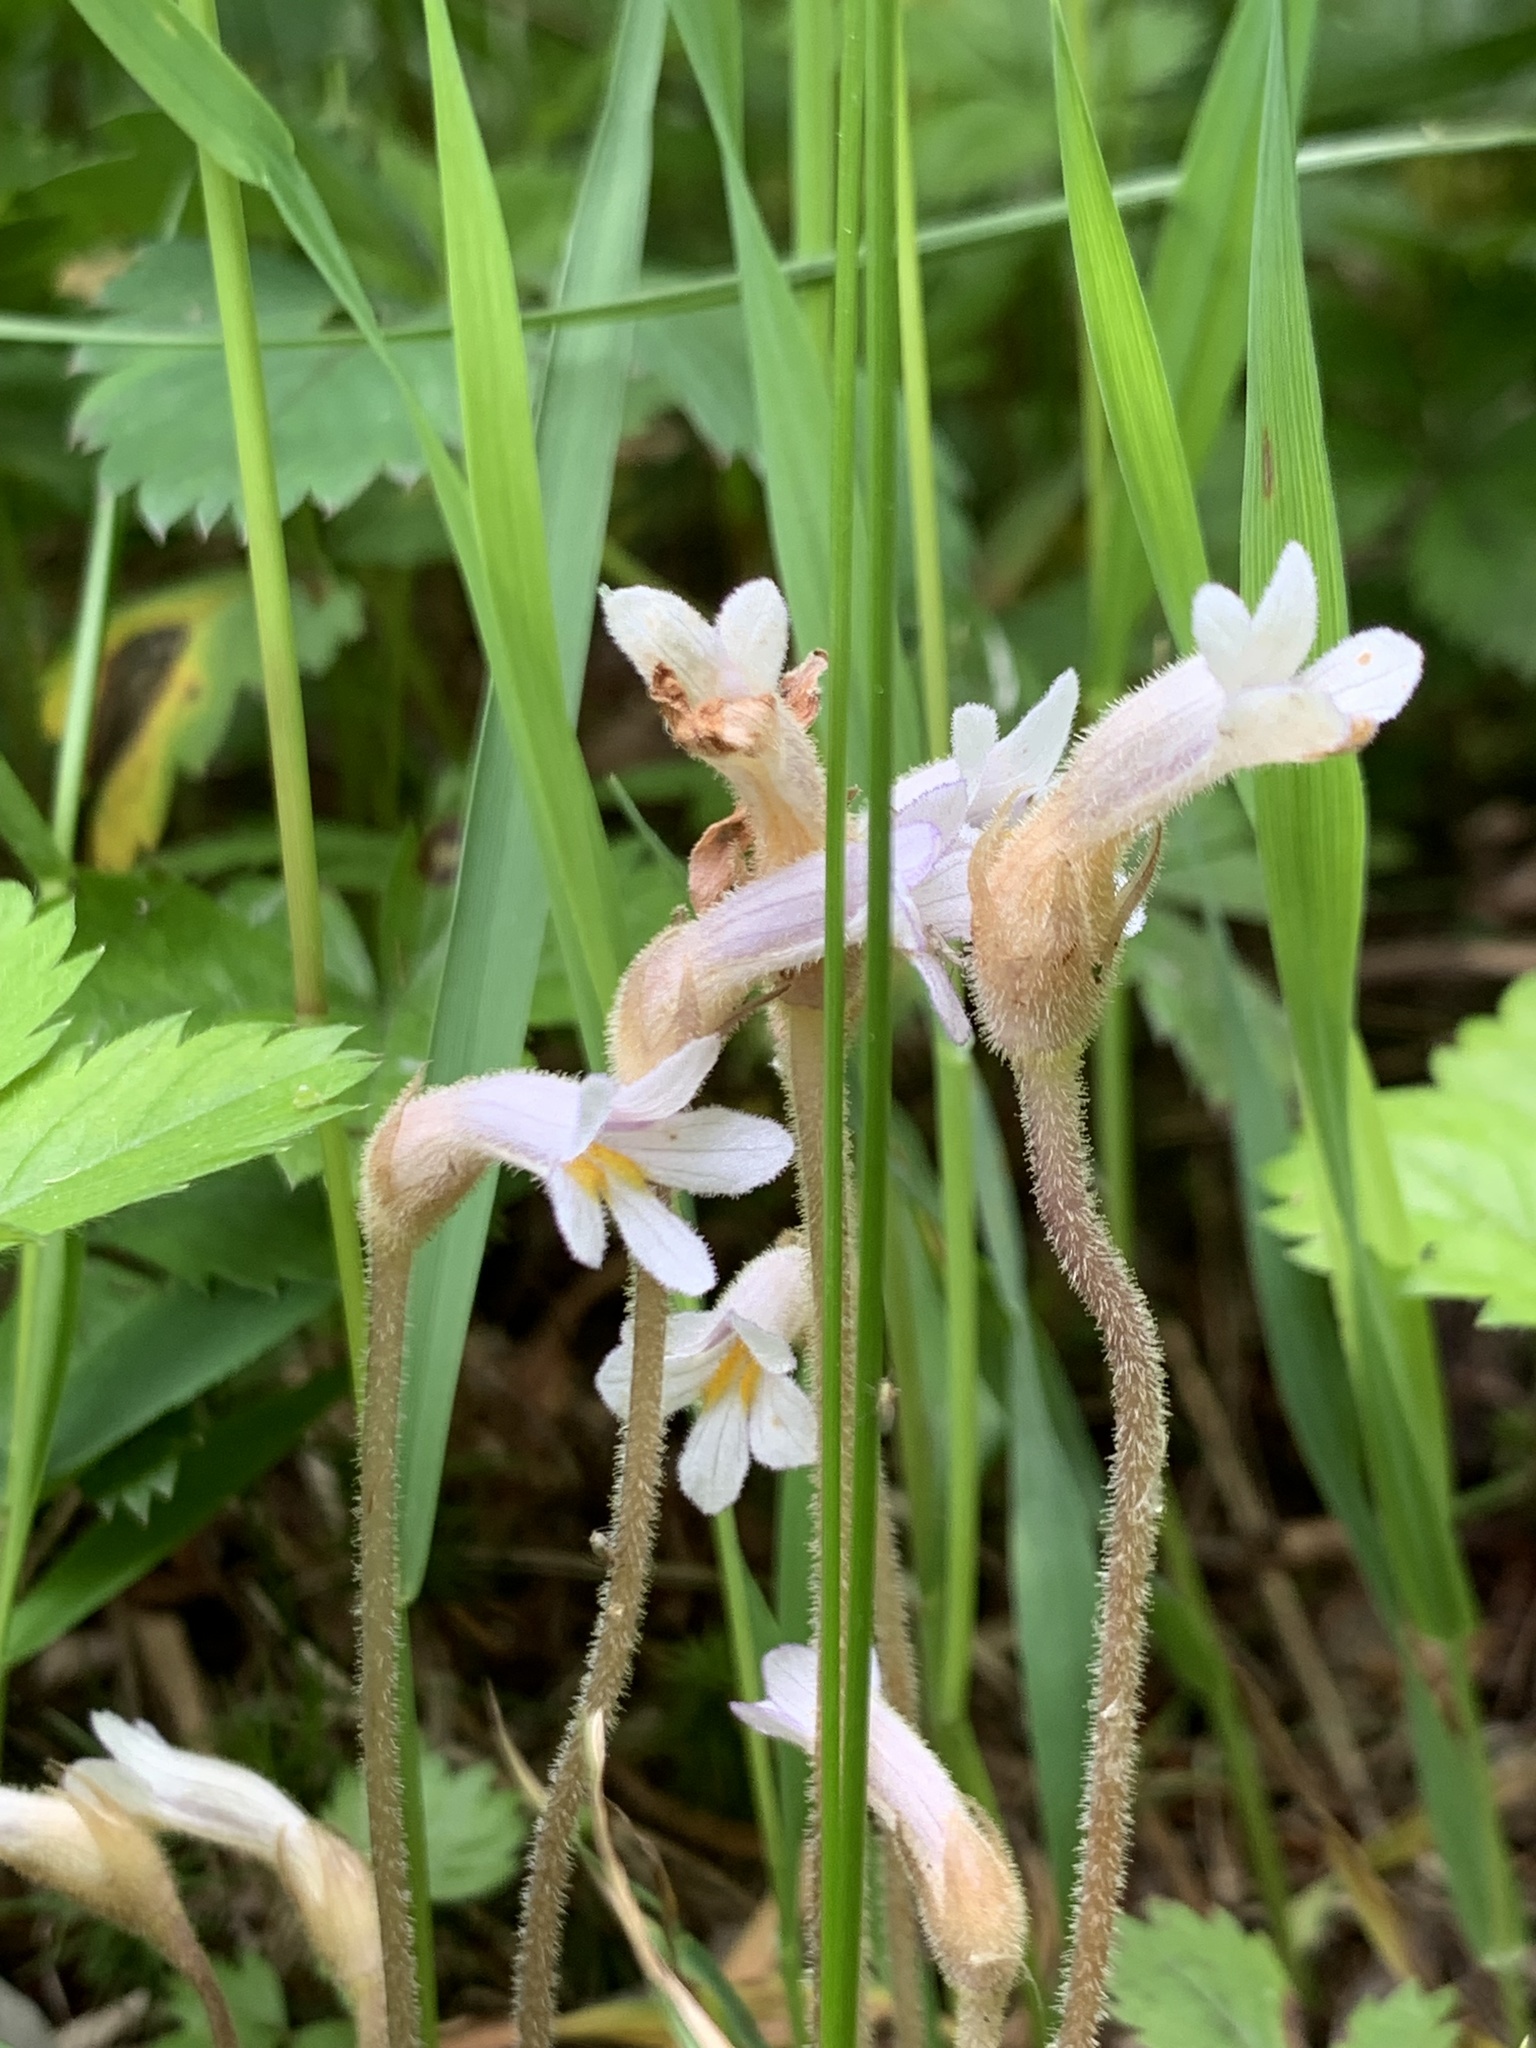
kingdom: Plantae
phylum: Tracheophyta
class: Magnoliopsida
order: Lamiales
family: Orobanchaceae
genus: Aphyllon
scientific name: Aphyllon uniflorum
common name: One-flowered broomrape
